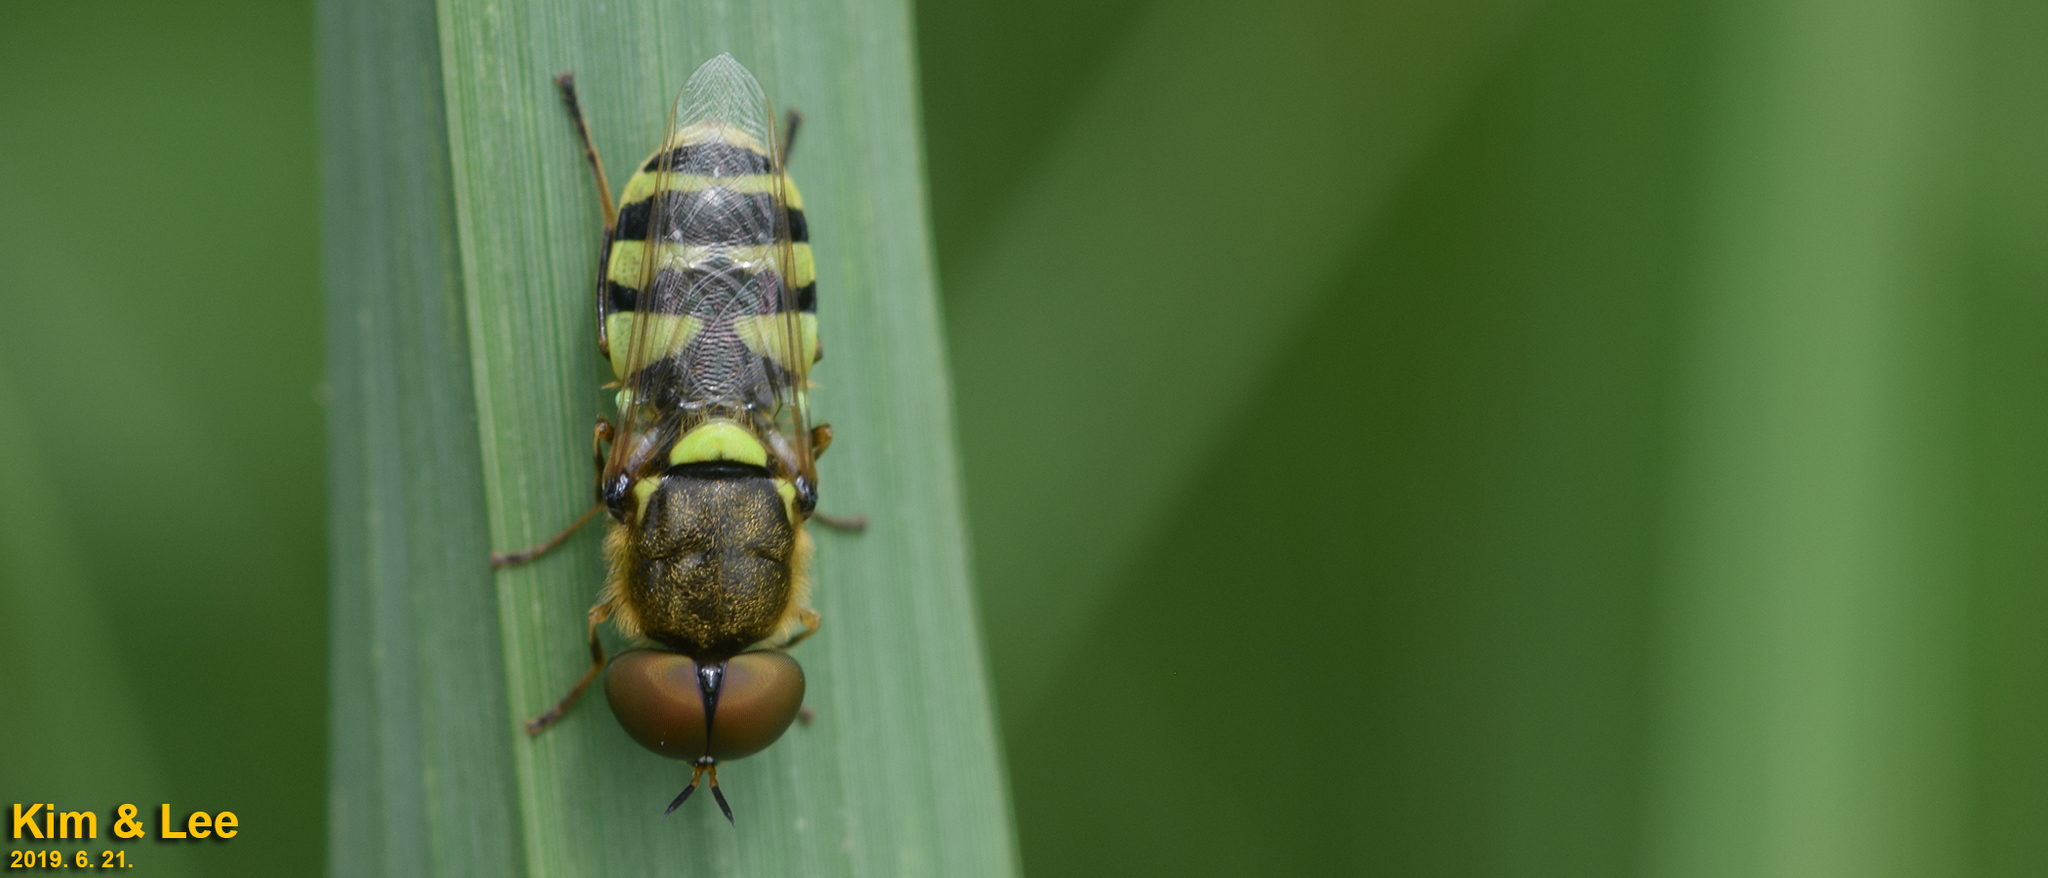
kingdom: Animalia
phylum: Arthropoda
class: Insecta
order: Diptera
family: Stratiomyidae
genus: Odontomyia
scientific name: Odontomyia garatas
